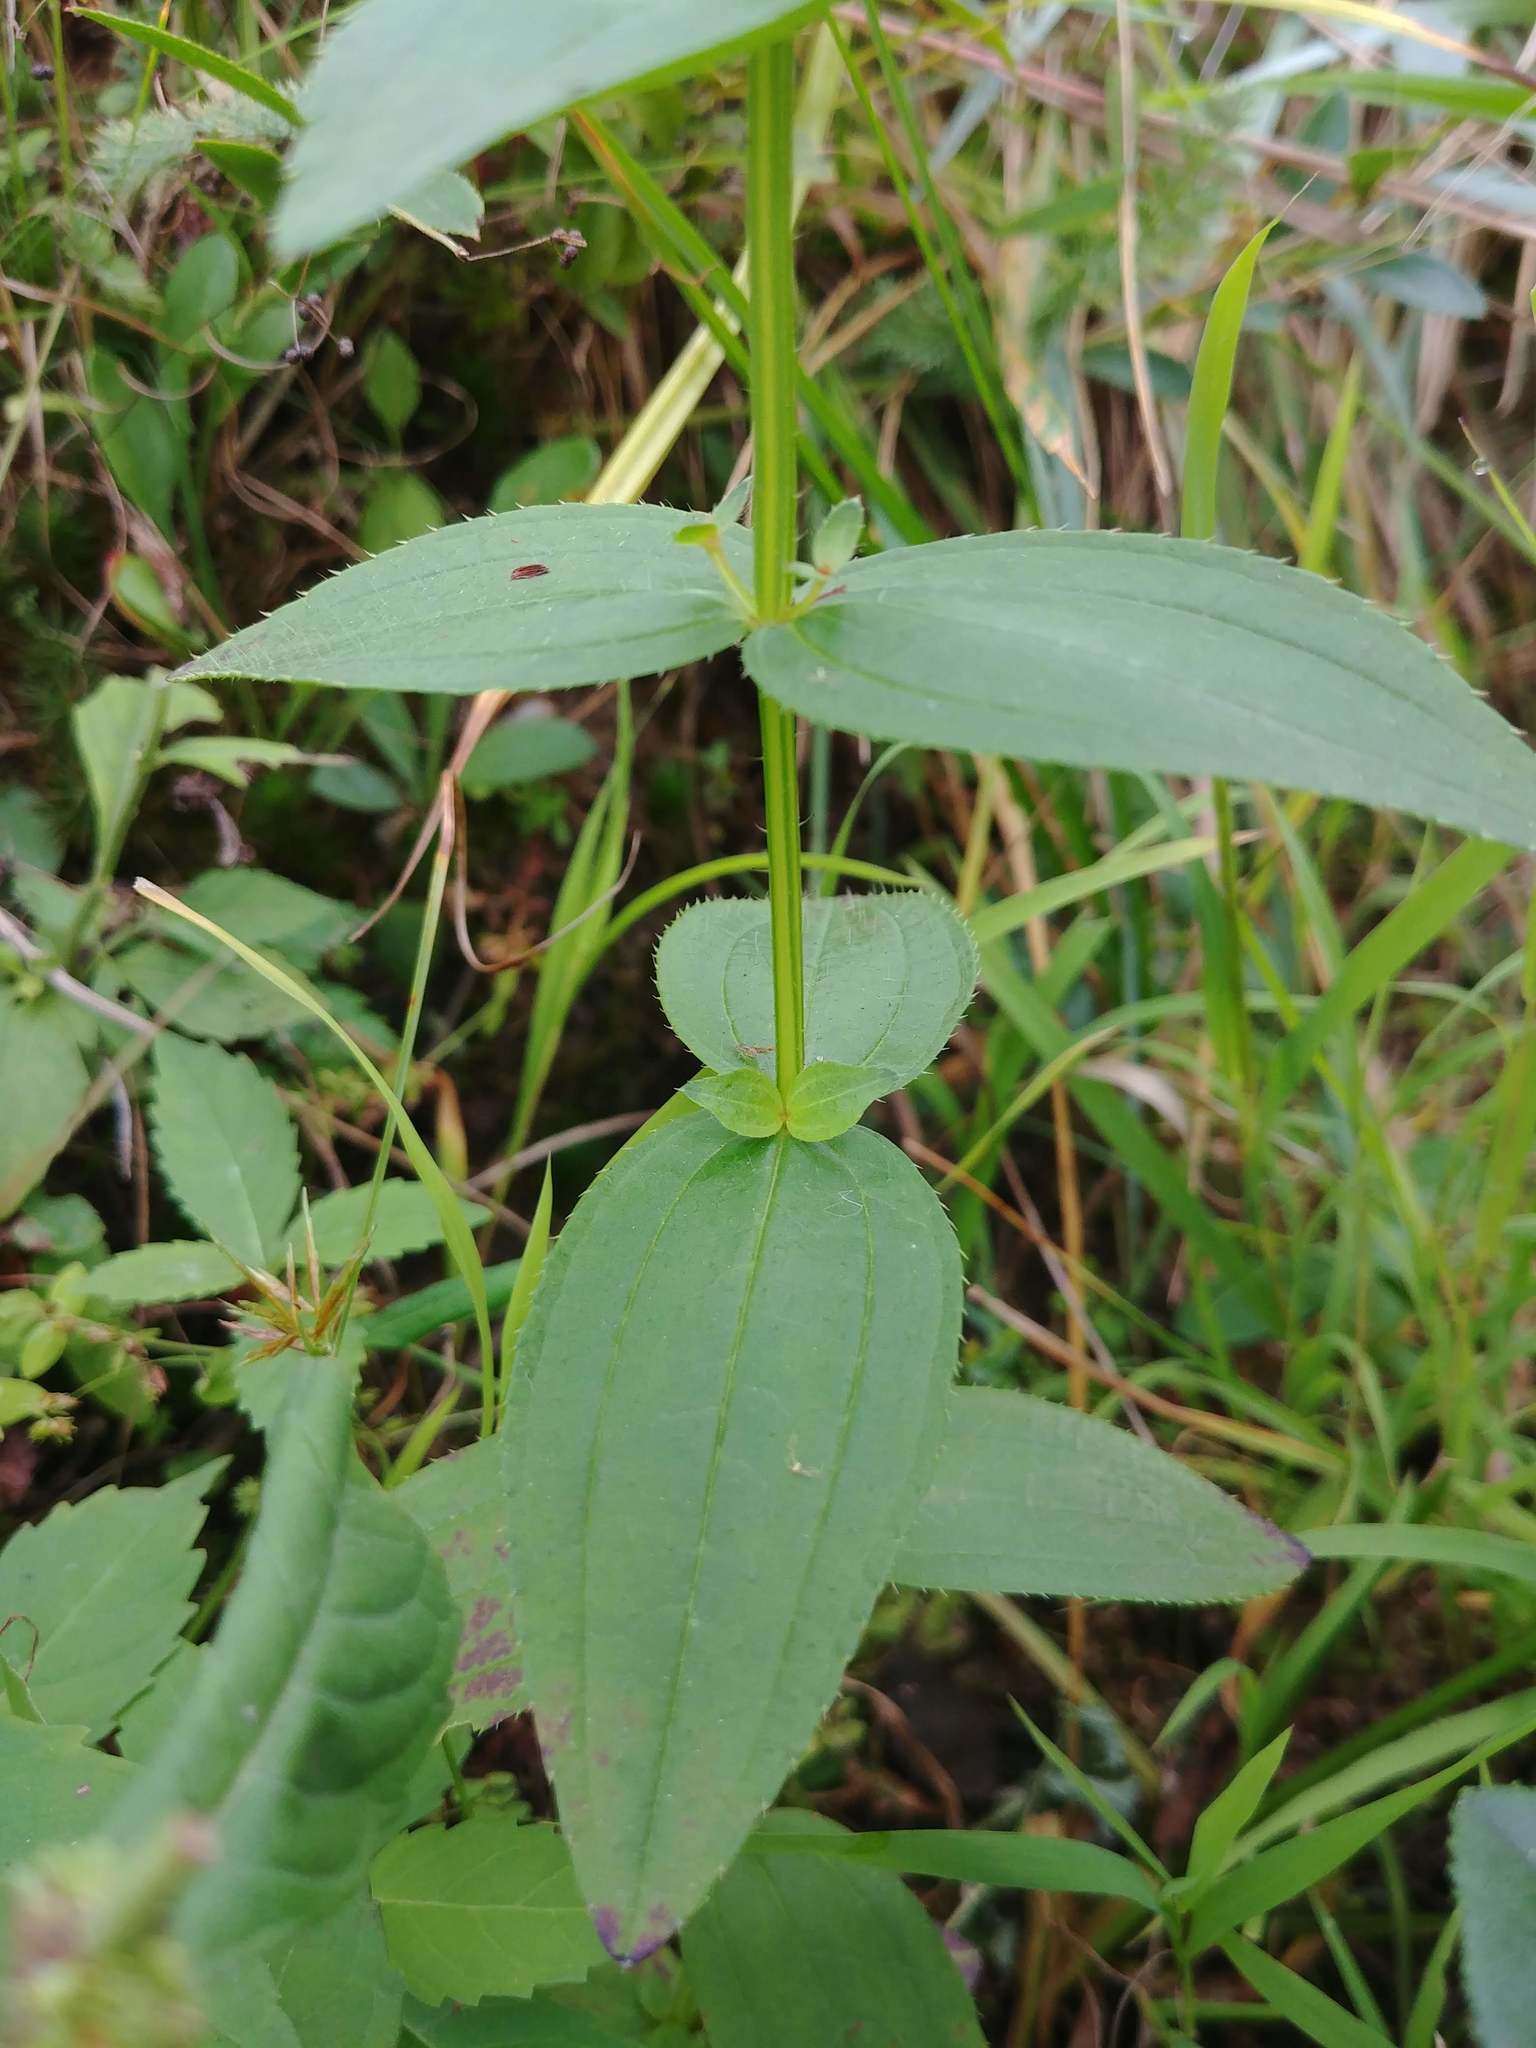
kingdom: Plantae
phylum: Tracheophyta
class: Magnoliopsida
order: Myrtales
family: Melastomataceae
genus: Rhexia
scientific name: Rhexia virginica
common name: Common meadow beauty
